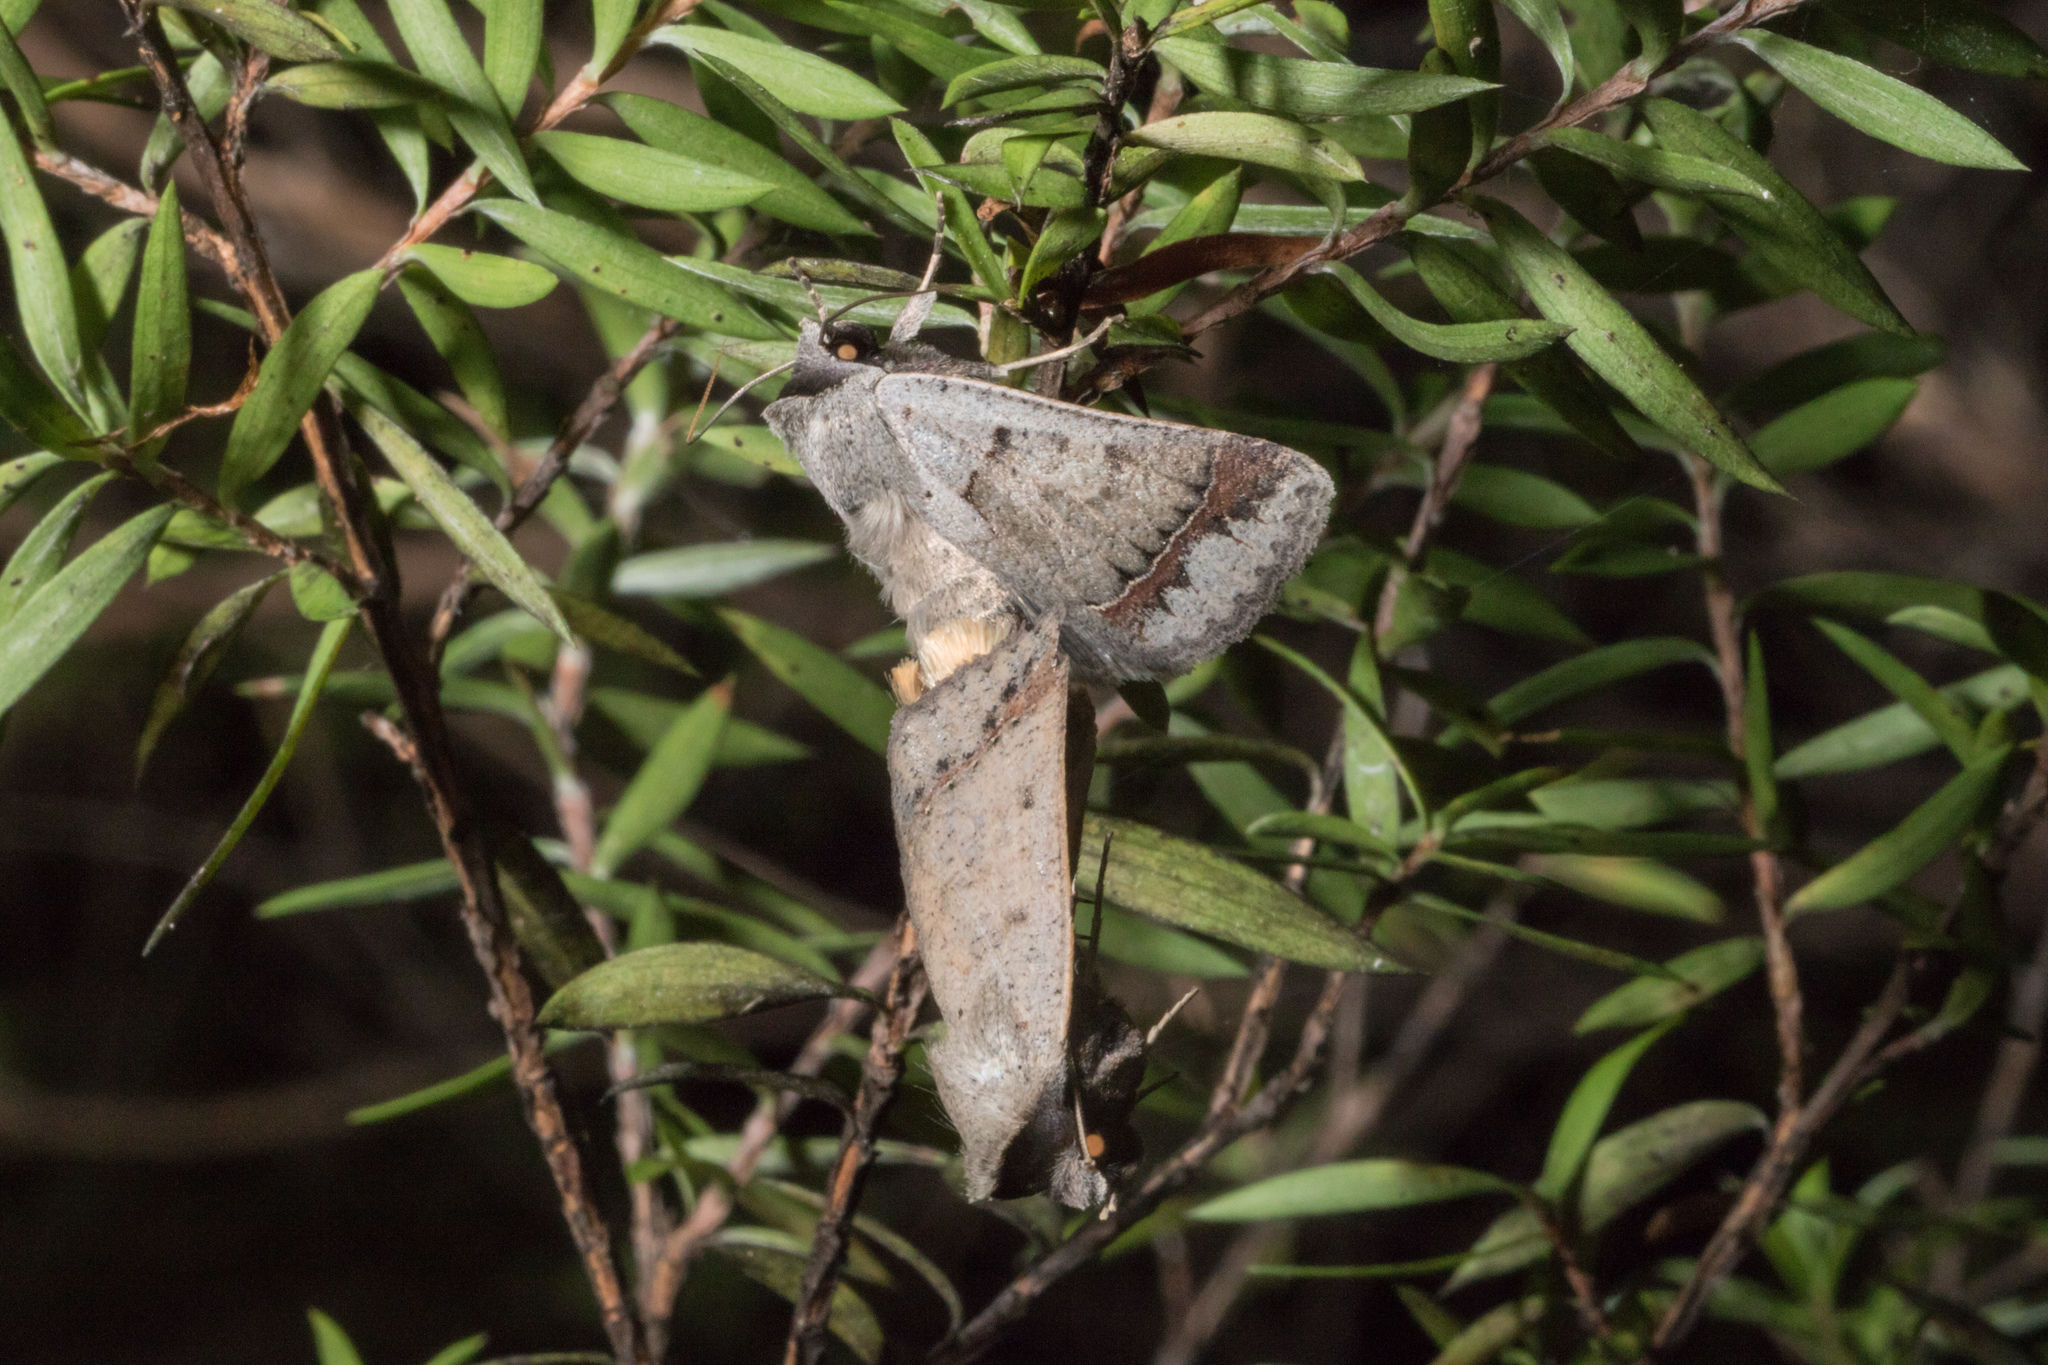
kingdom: Animalia
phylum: Arthropoda
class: Insecta
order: Lepidoptera
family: Erebidae
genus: Pantydia
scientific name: Pantydia sparsa
